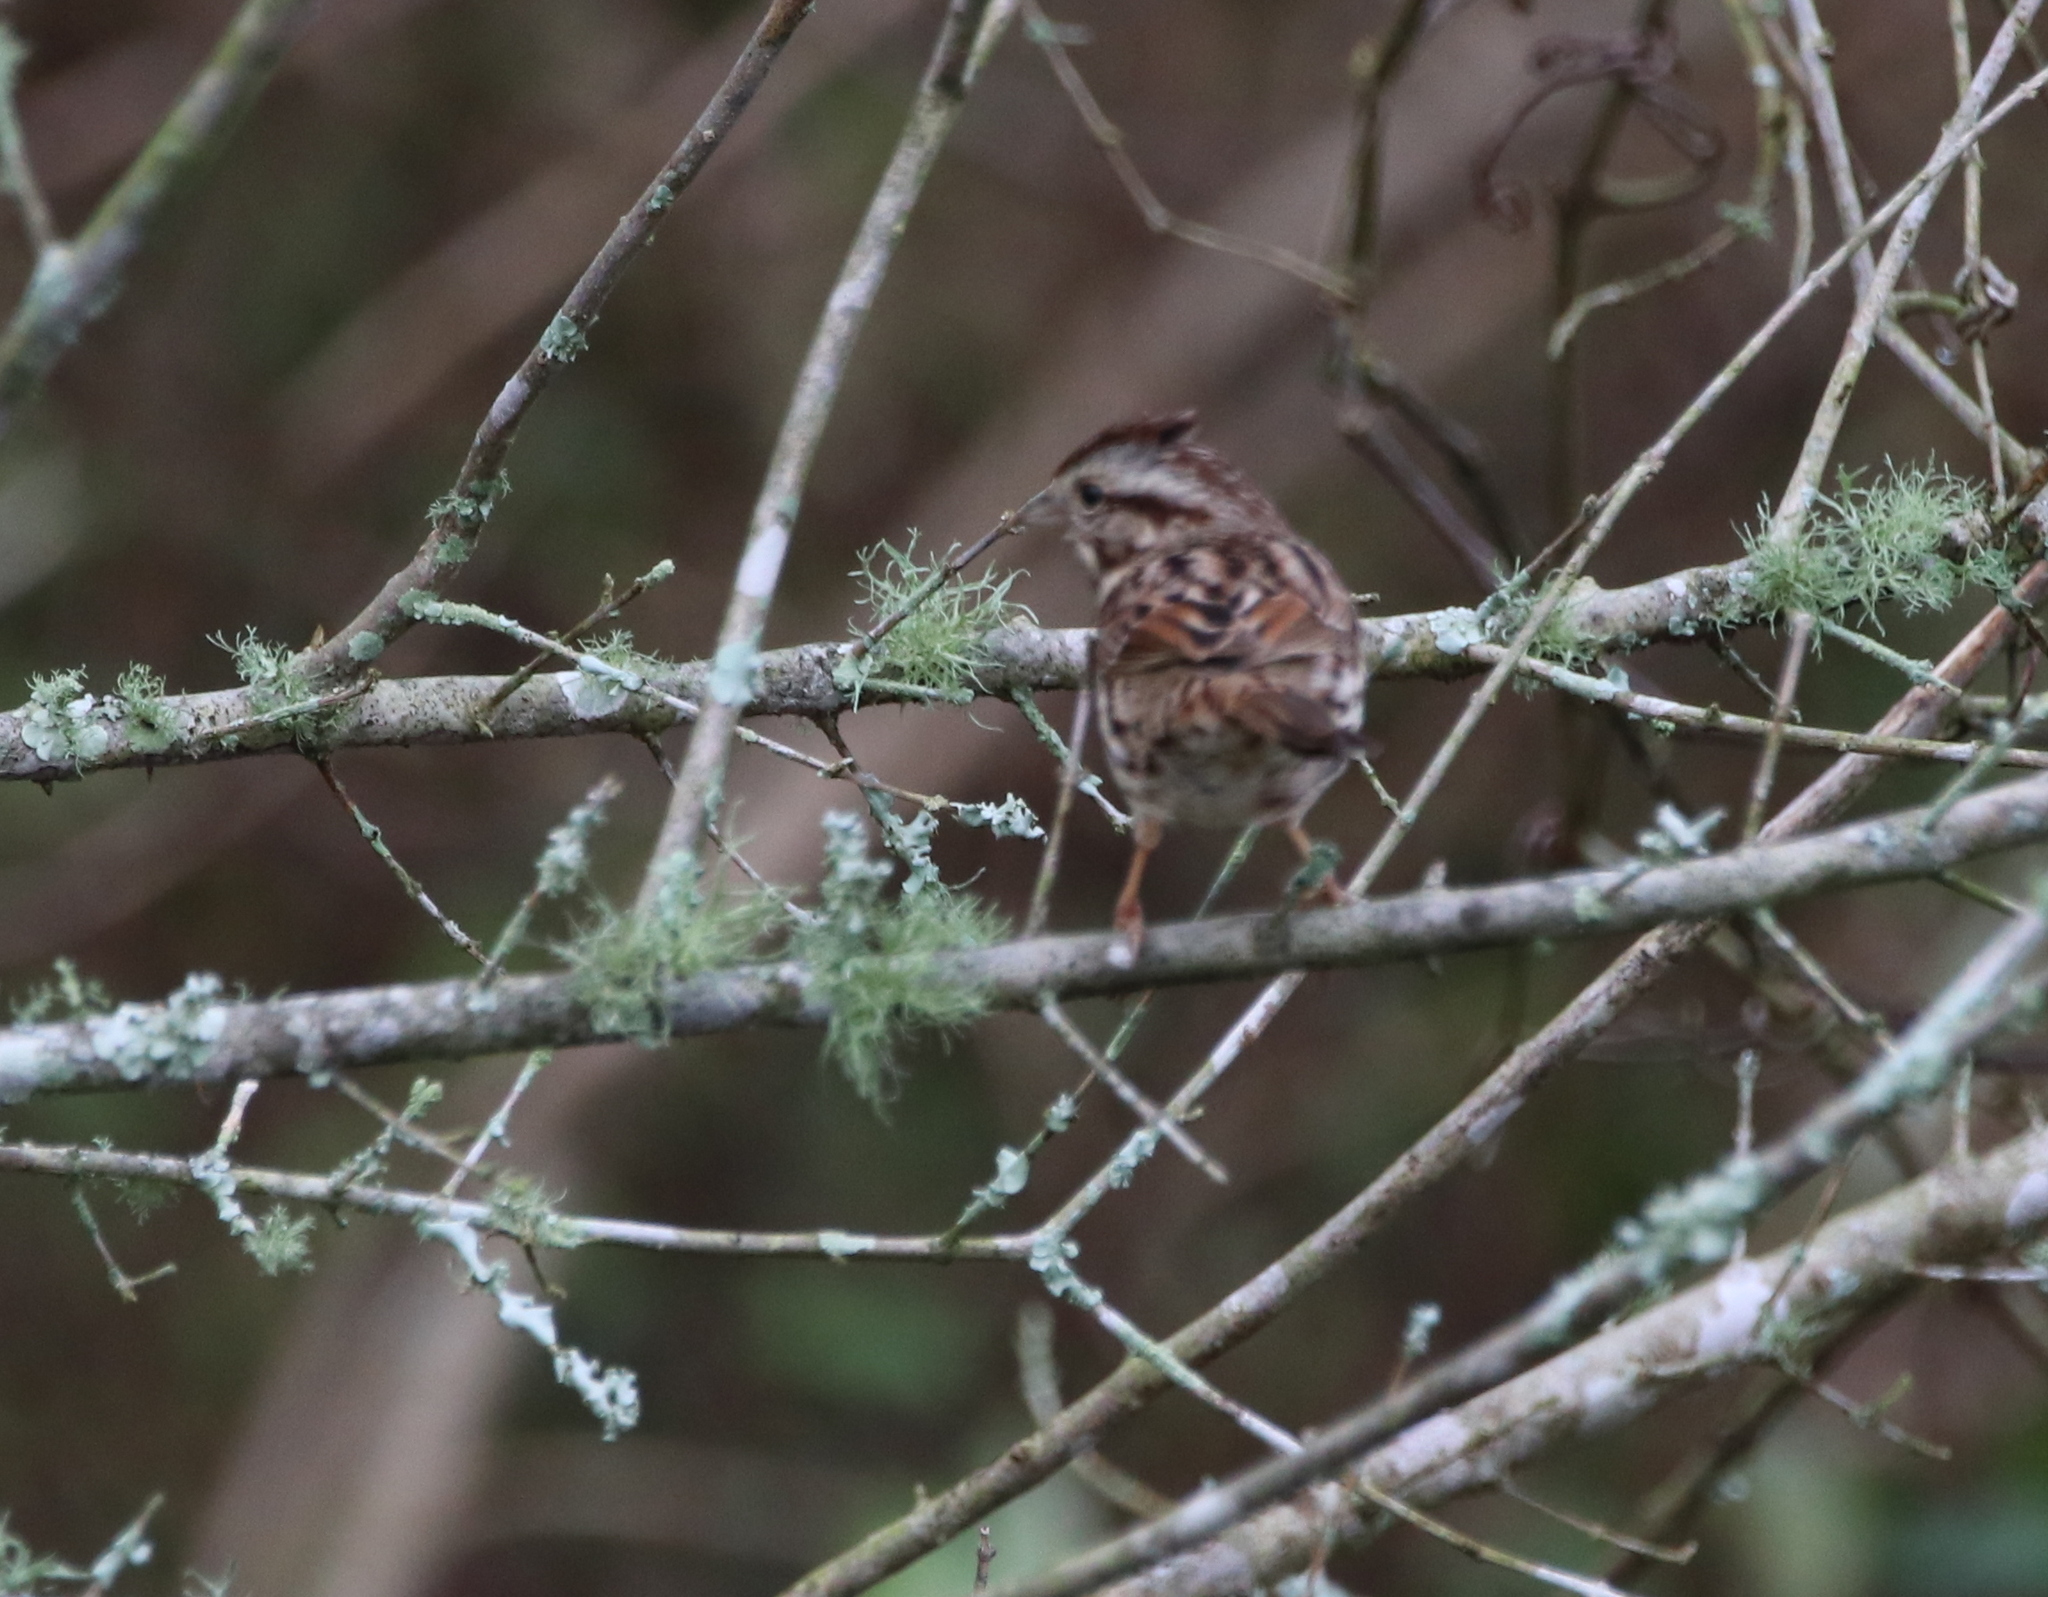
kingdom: Animalia
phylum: Chordata
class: Aves
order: Passeriformes
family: Passerellidae
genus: Melospiza
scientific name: Melospiza melodia
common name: Song sparrow
